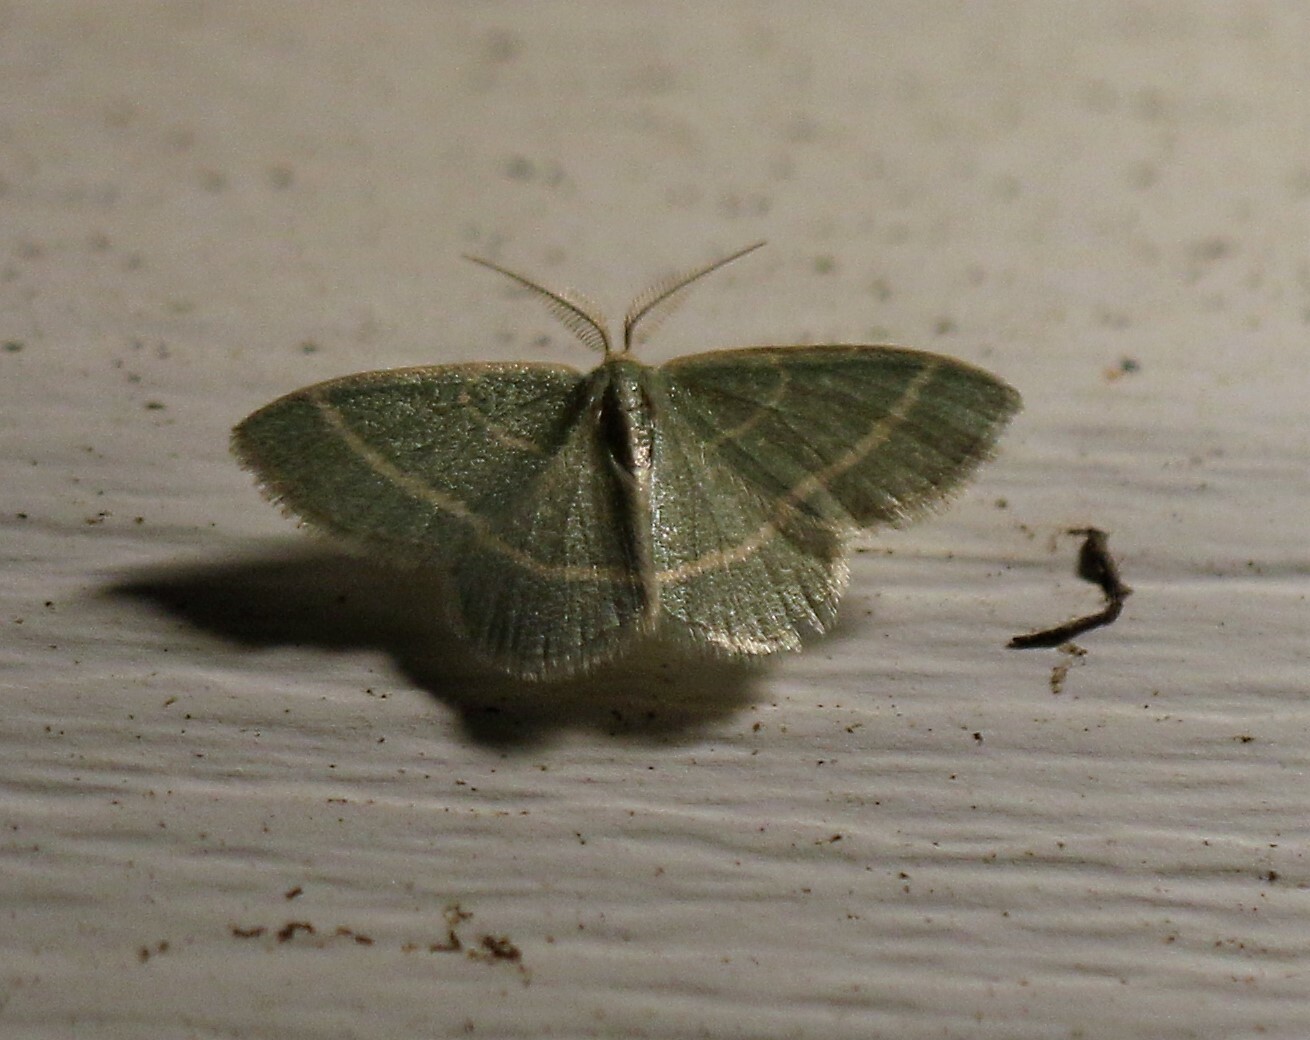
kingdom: Animalia
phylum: Arthropoda
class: Insecta
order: Lepidoptera
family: Geometridae
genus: Chlorochlamys
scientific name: Chlorochlamys chloroleucaria
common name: Blackberry looper
